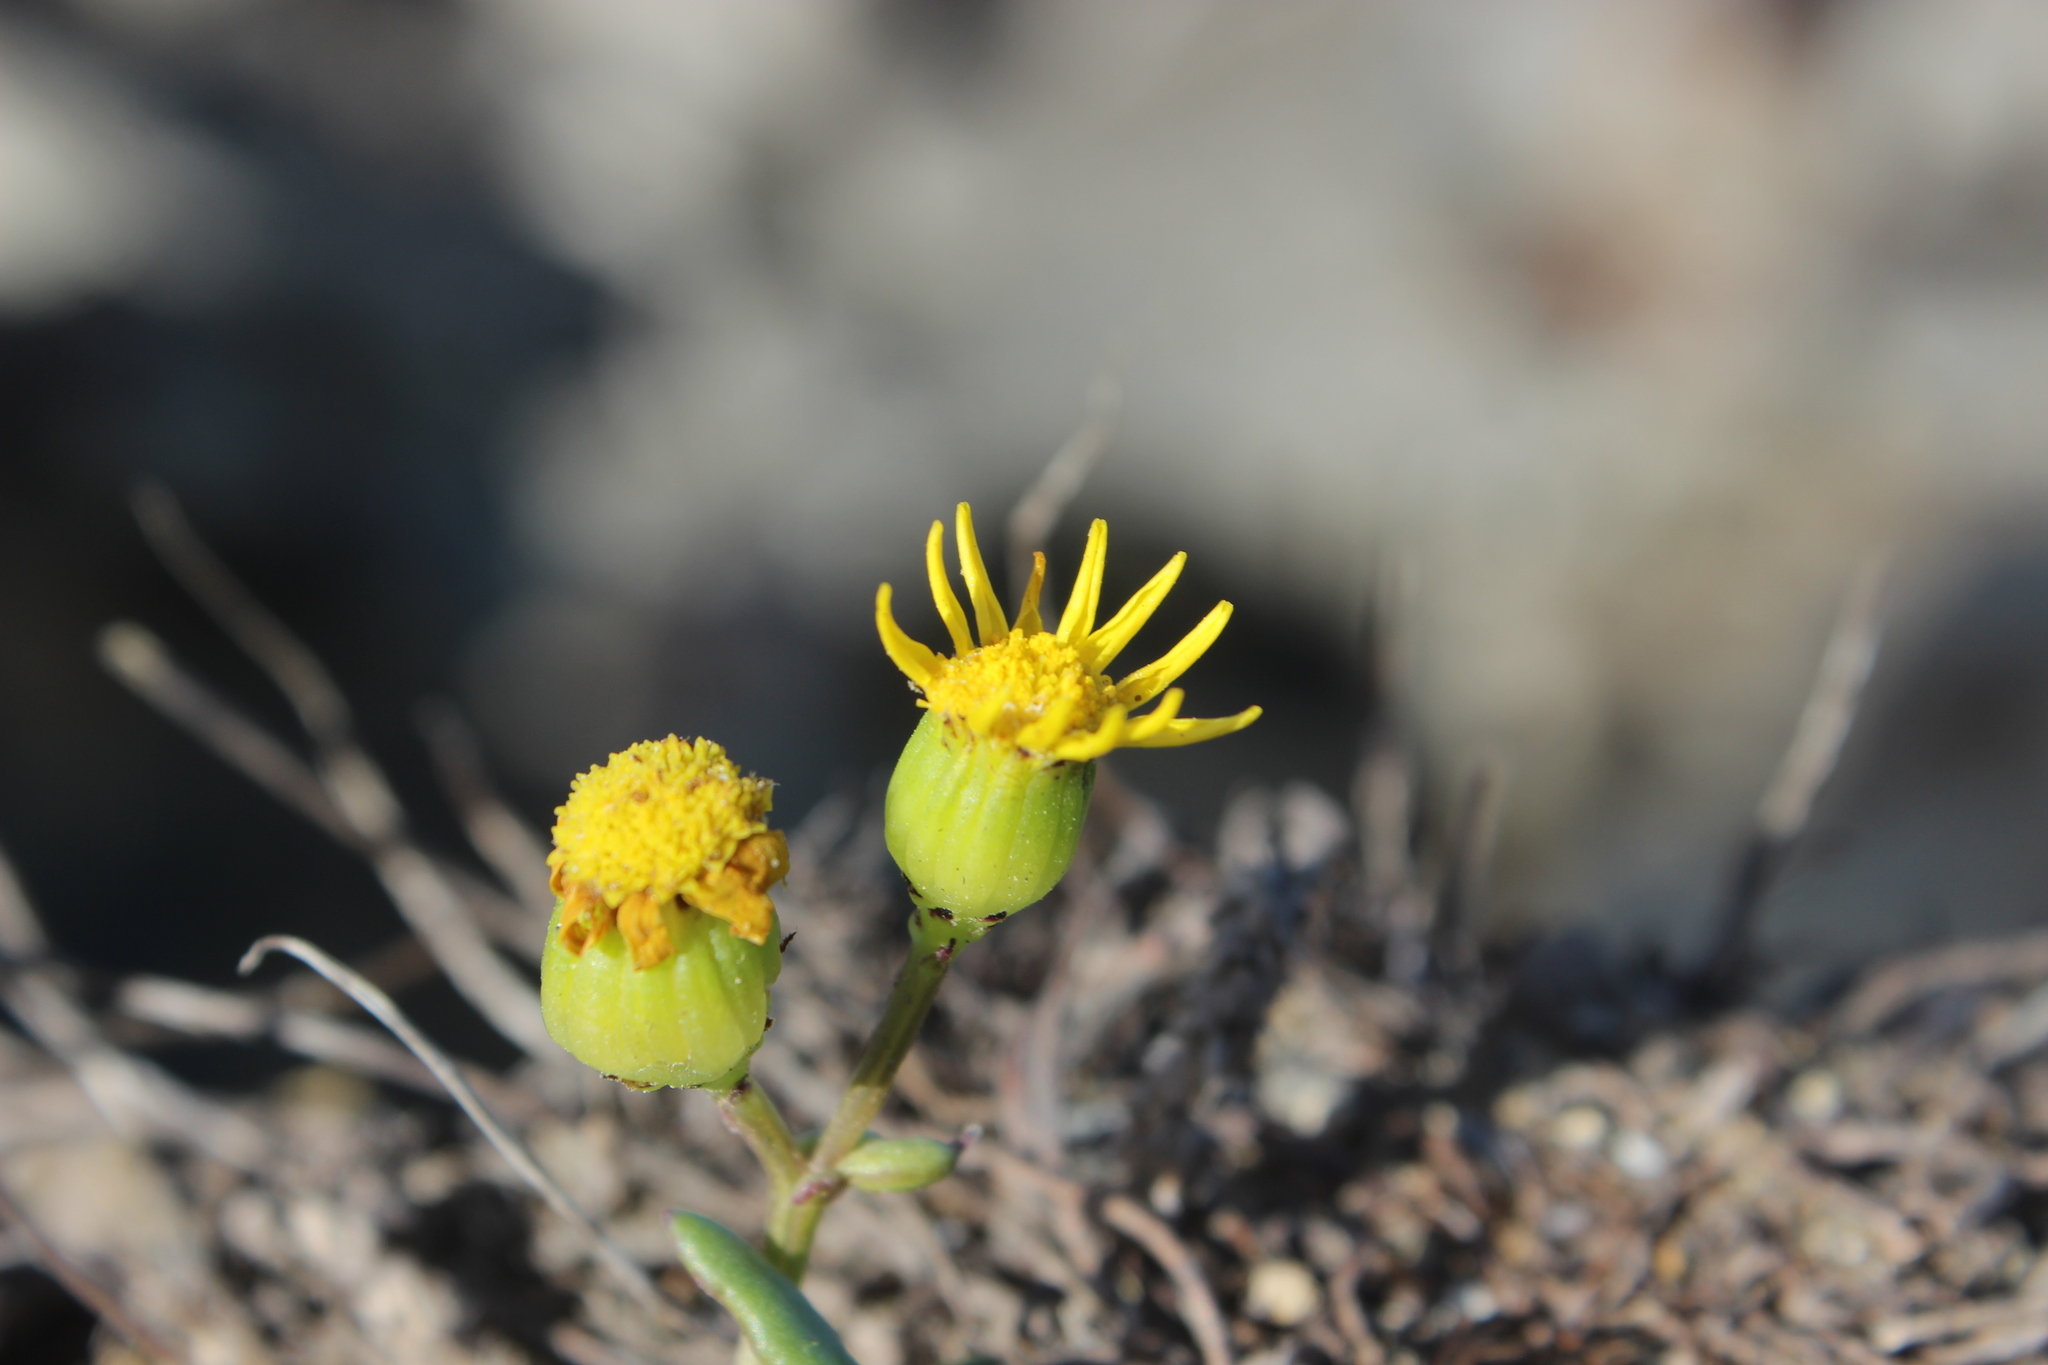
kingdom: Plantae
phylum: Tracheophyta
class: Magnoliopsida
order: Asterales
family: Asteraceae
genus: Senecio
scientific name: Senecio lautus
